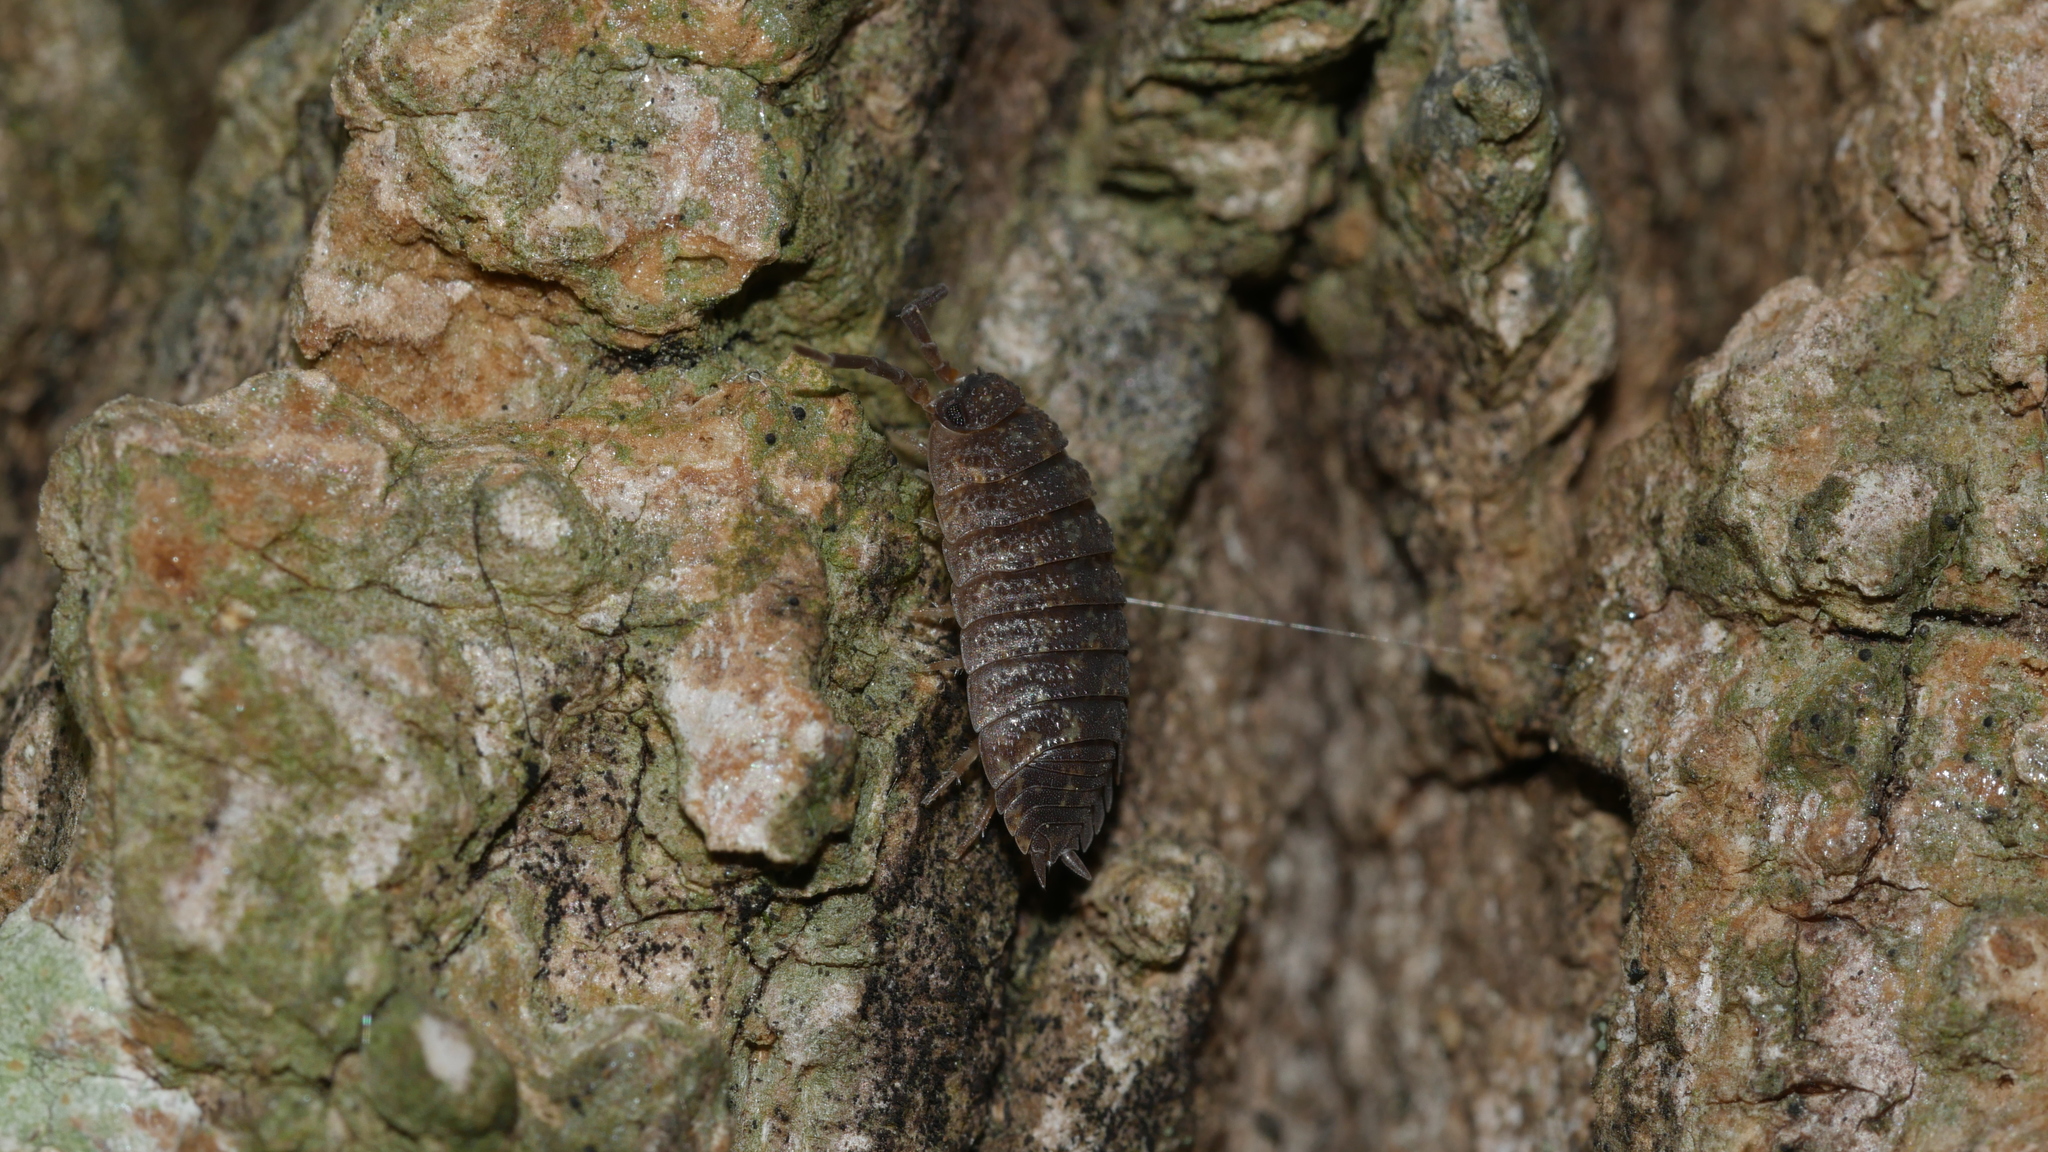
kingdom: Animalia
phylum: Arthropoda
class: Malacostraca
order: Isopoda
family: Porcellionidae
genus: Porcellio
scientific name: Porcellio scaber
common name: Common rough woodlouse
